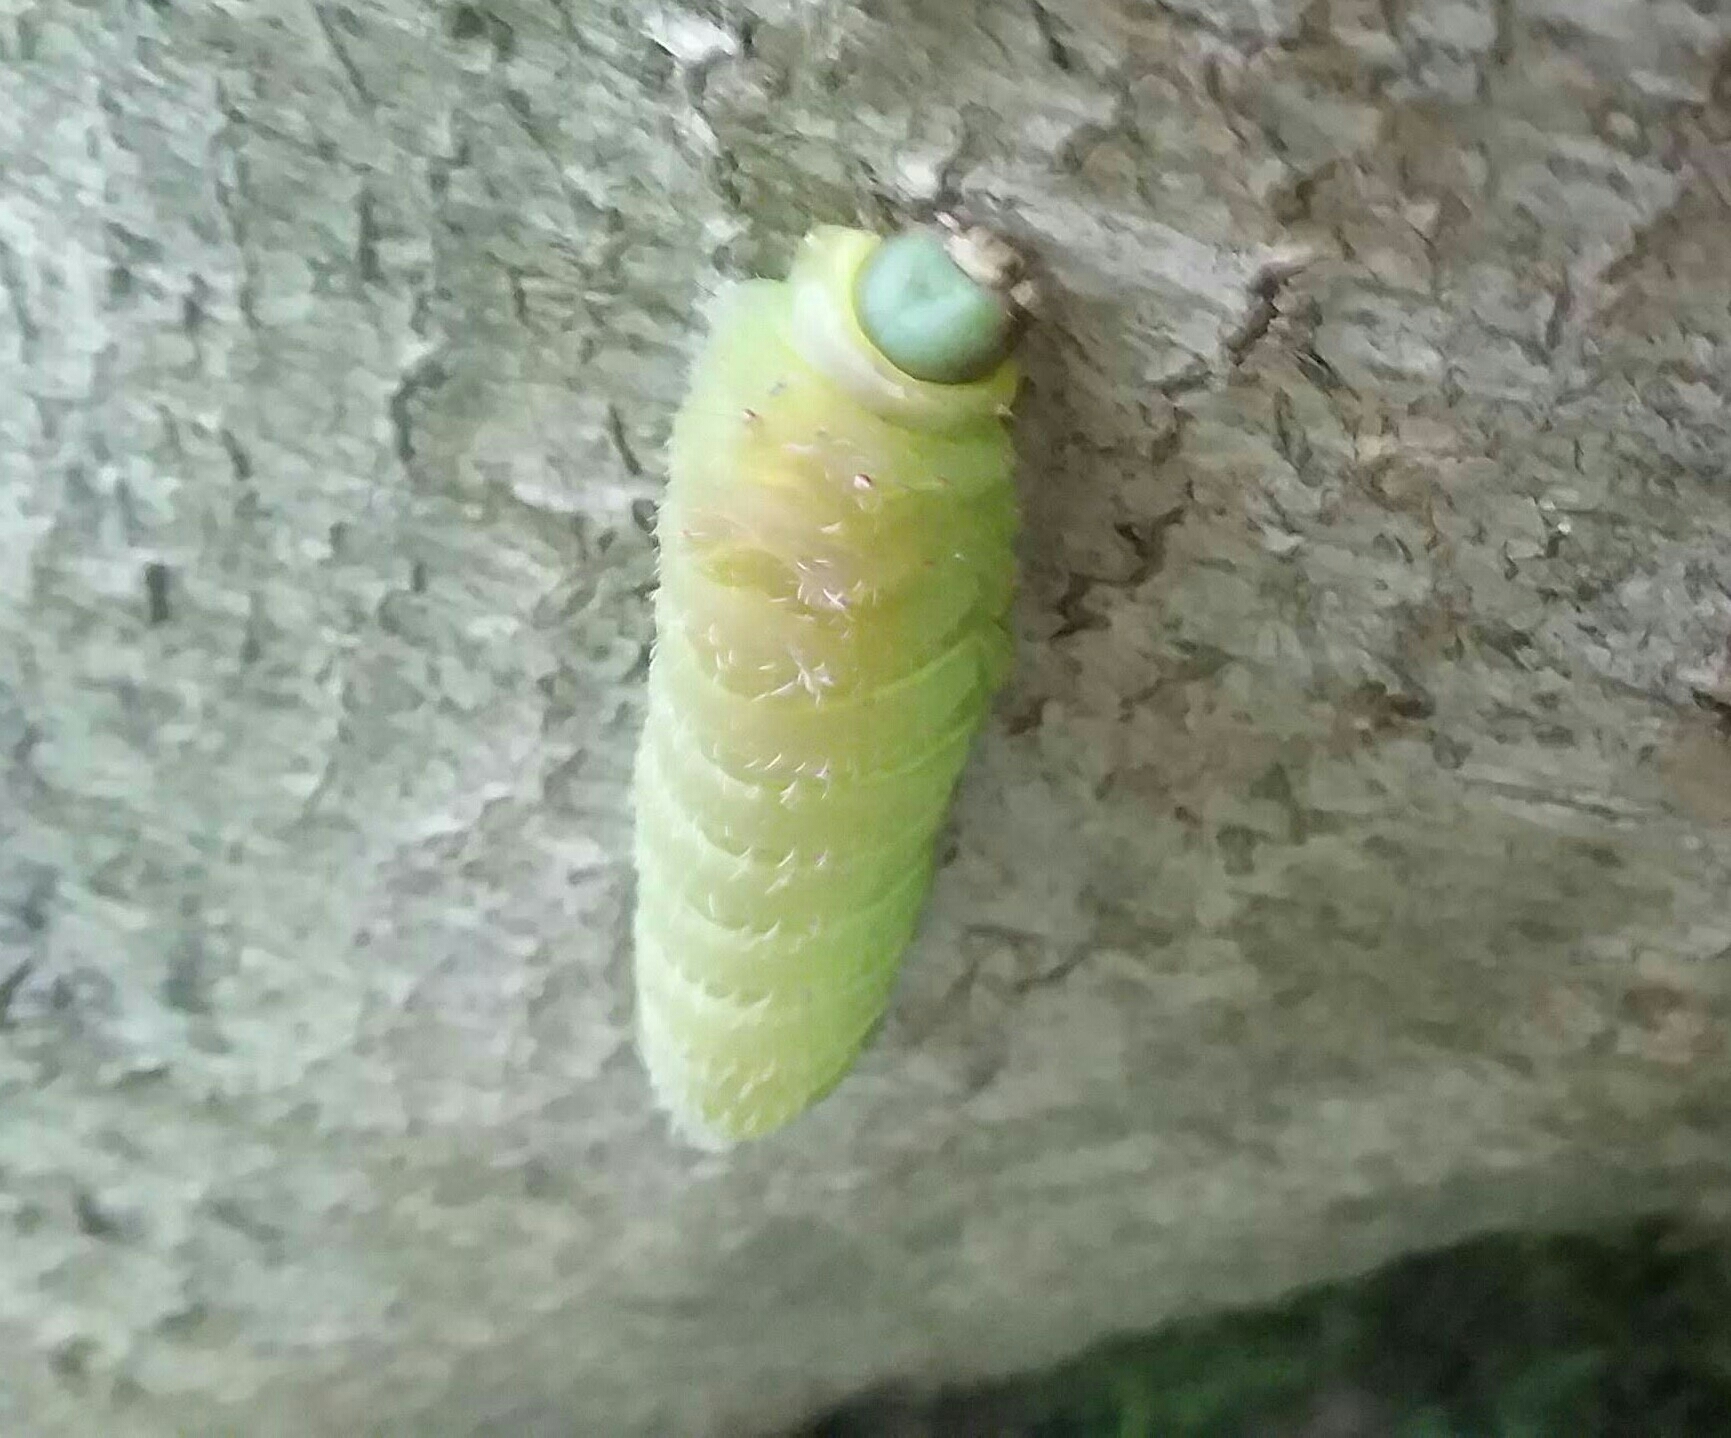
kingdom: Animalia
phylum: Arthropoda
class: Insecta
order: Lepidoptera
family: Saturniidae
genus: Actias
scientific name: Actias luna
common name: Luna moth
